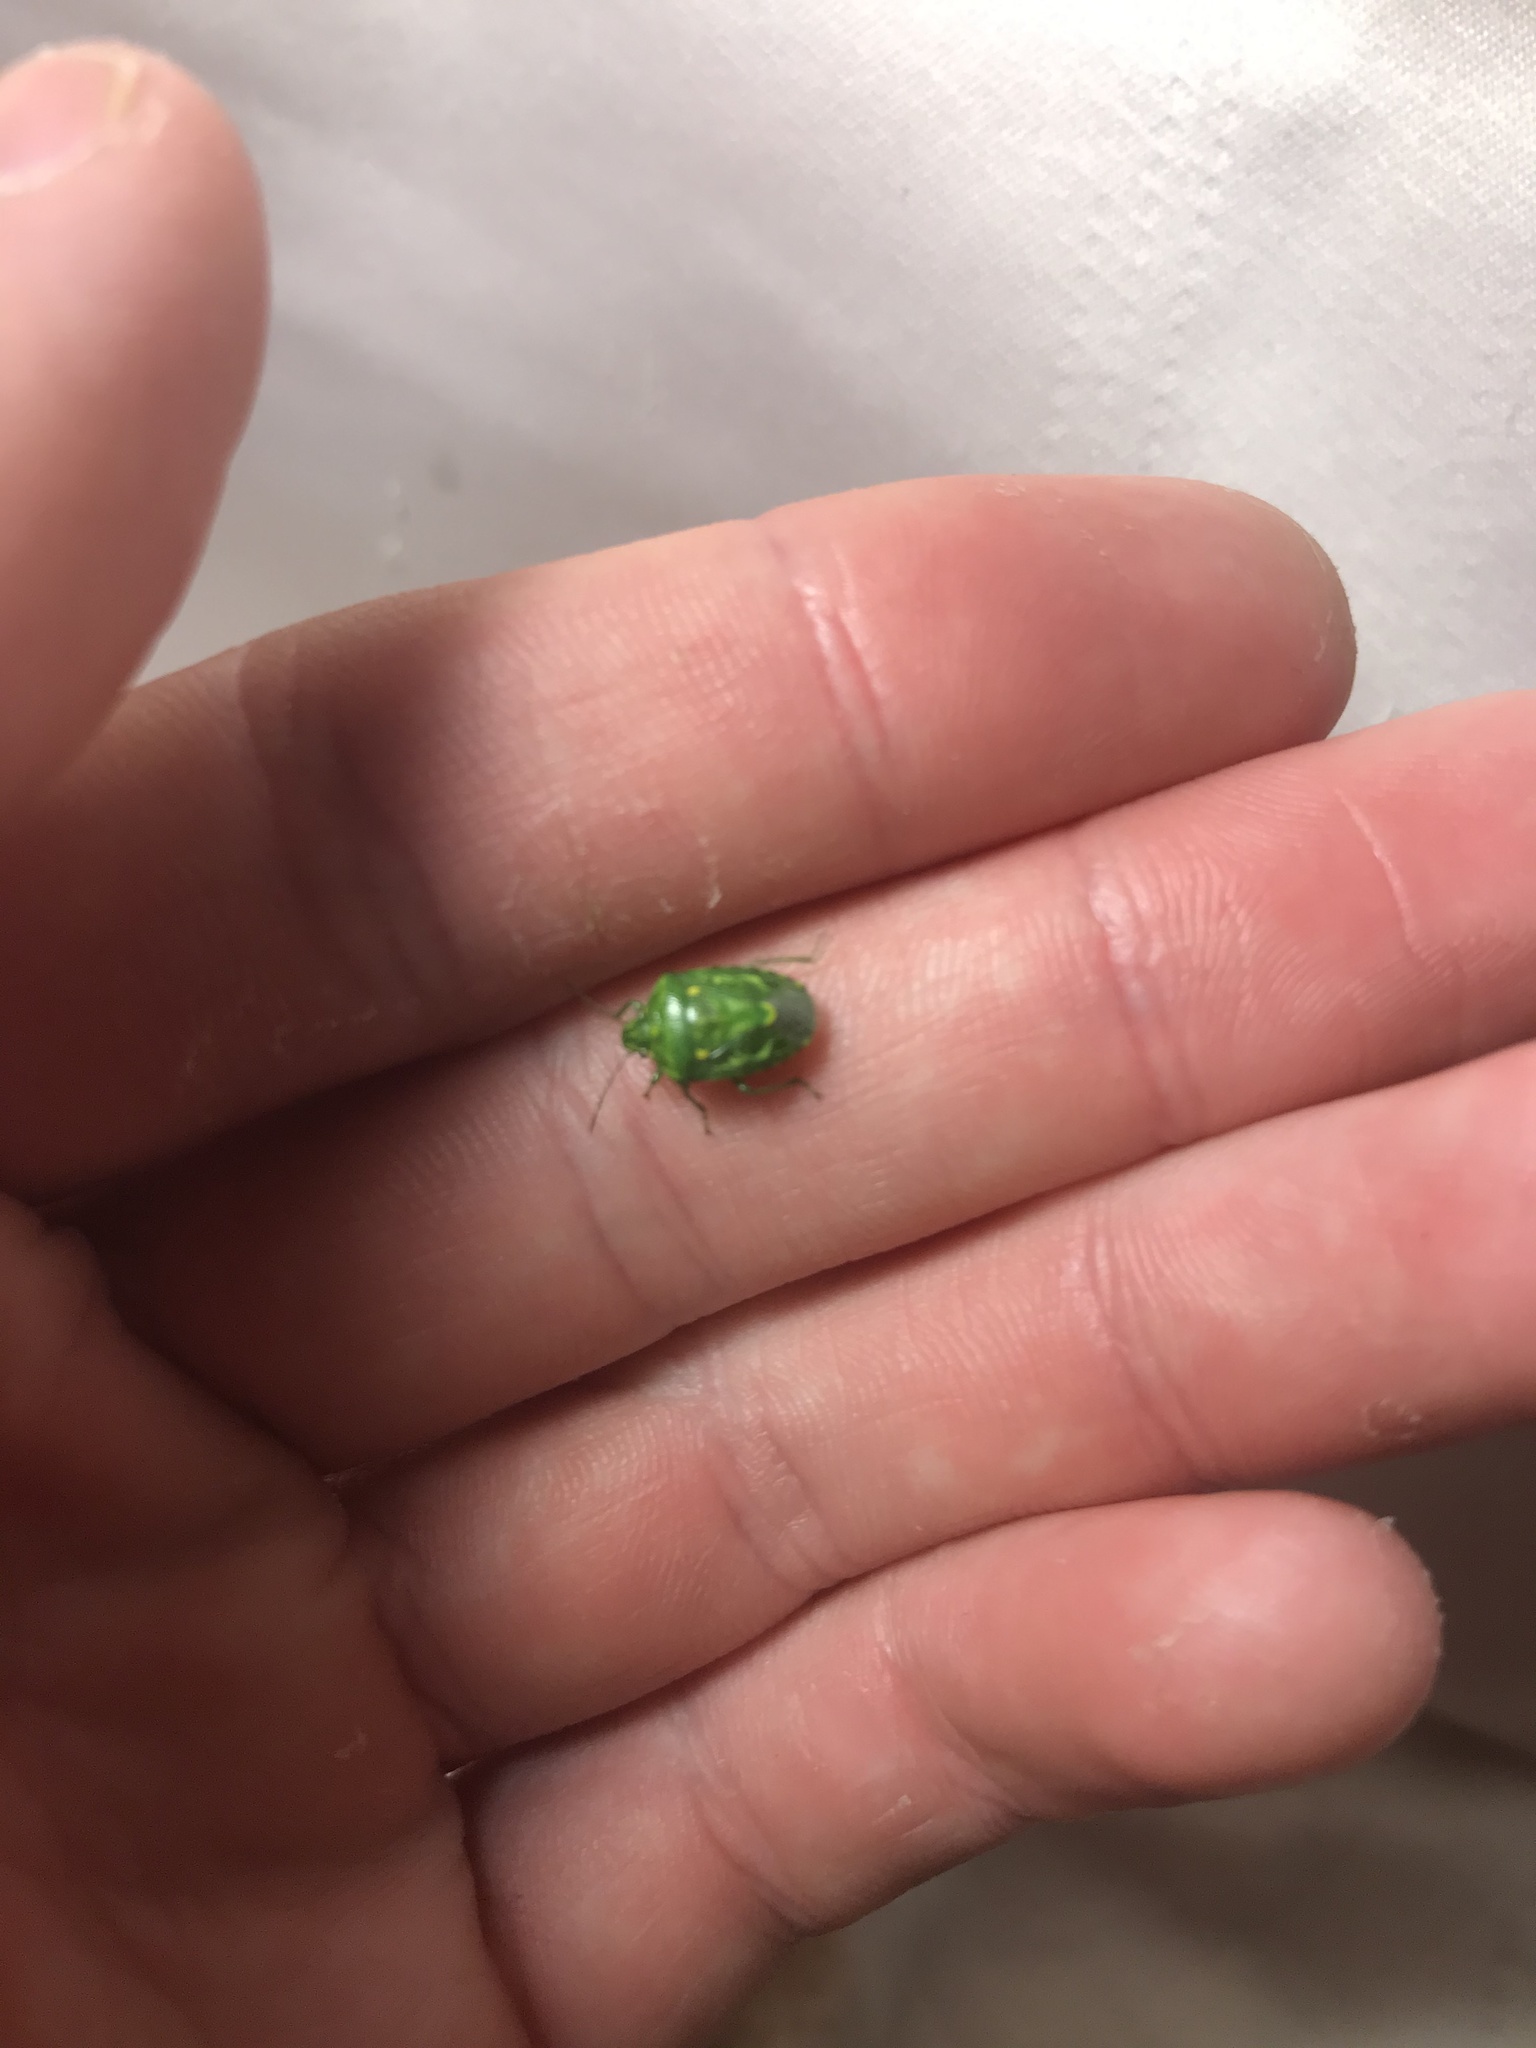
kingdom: Animalia
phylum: Arthropoda
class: Insecta
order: Hemiptera
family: Pentatomidae
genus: Banasa
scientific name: Banasa euchlora
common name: Cedar berry bug
